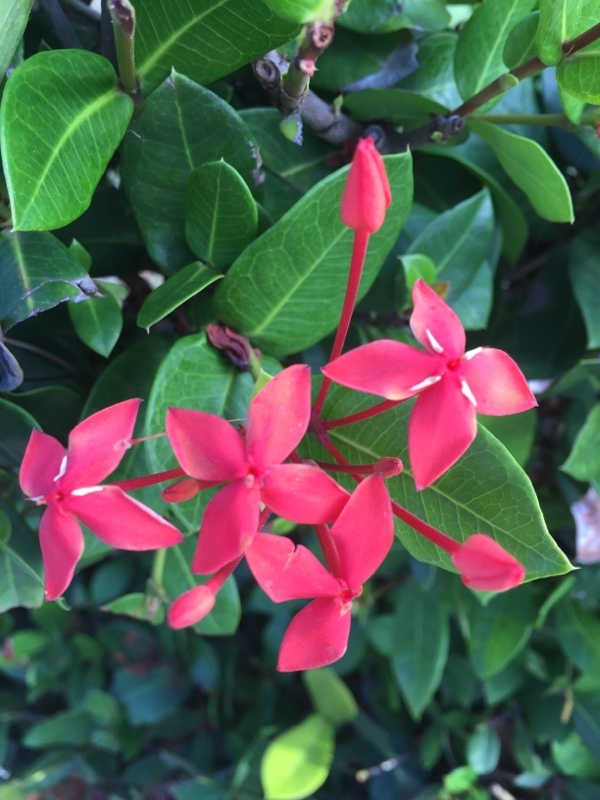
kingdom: Plantae
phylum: Tracheophyta
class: Magnoliopsida
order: Gentianales
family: Rubiaceae
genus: Ixora
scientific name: Ixora coccinea
